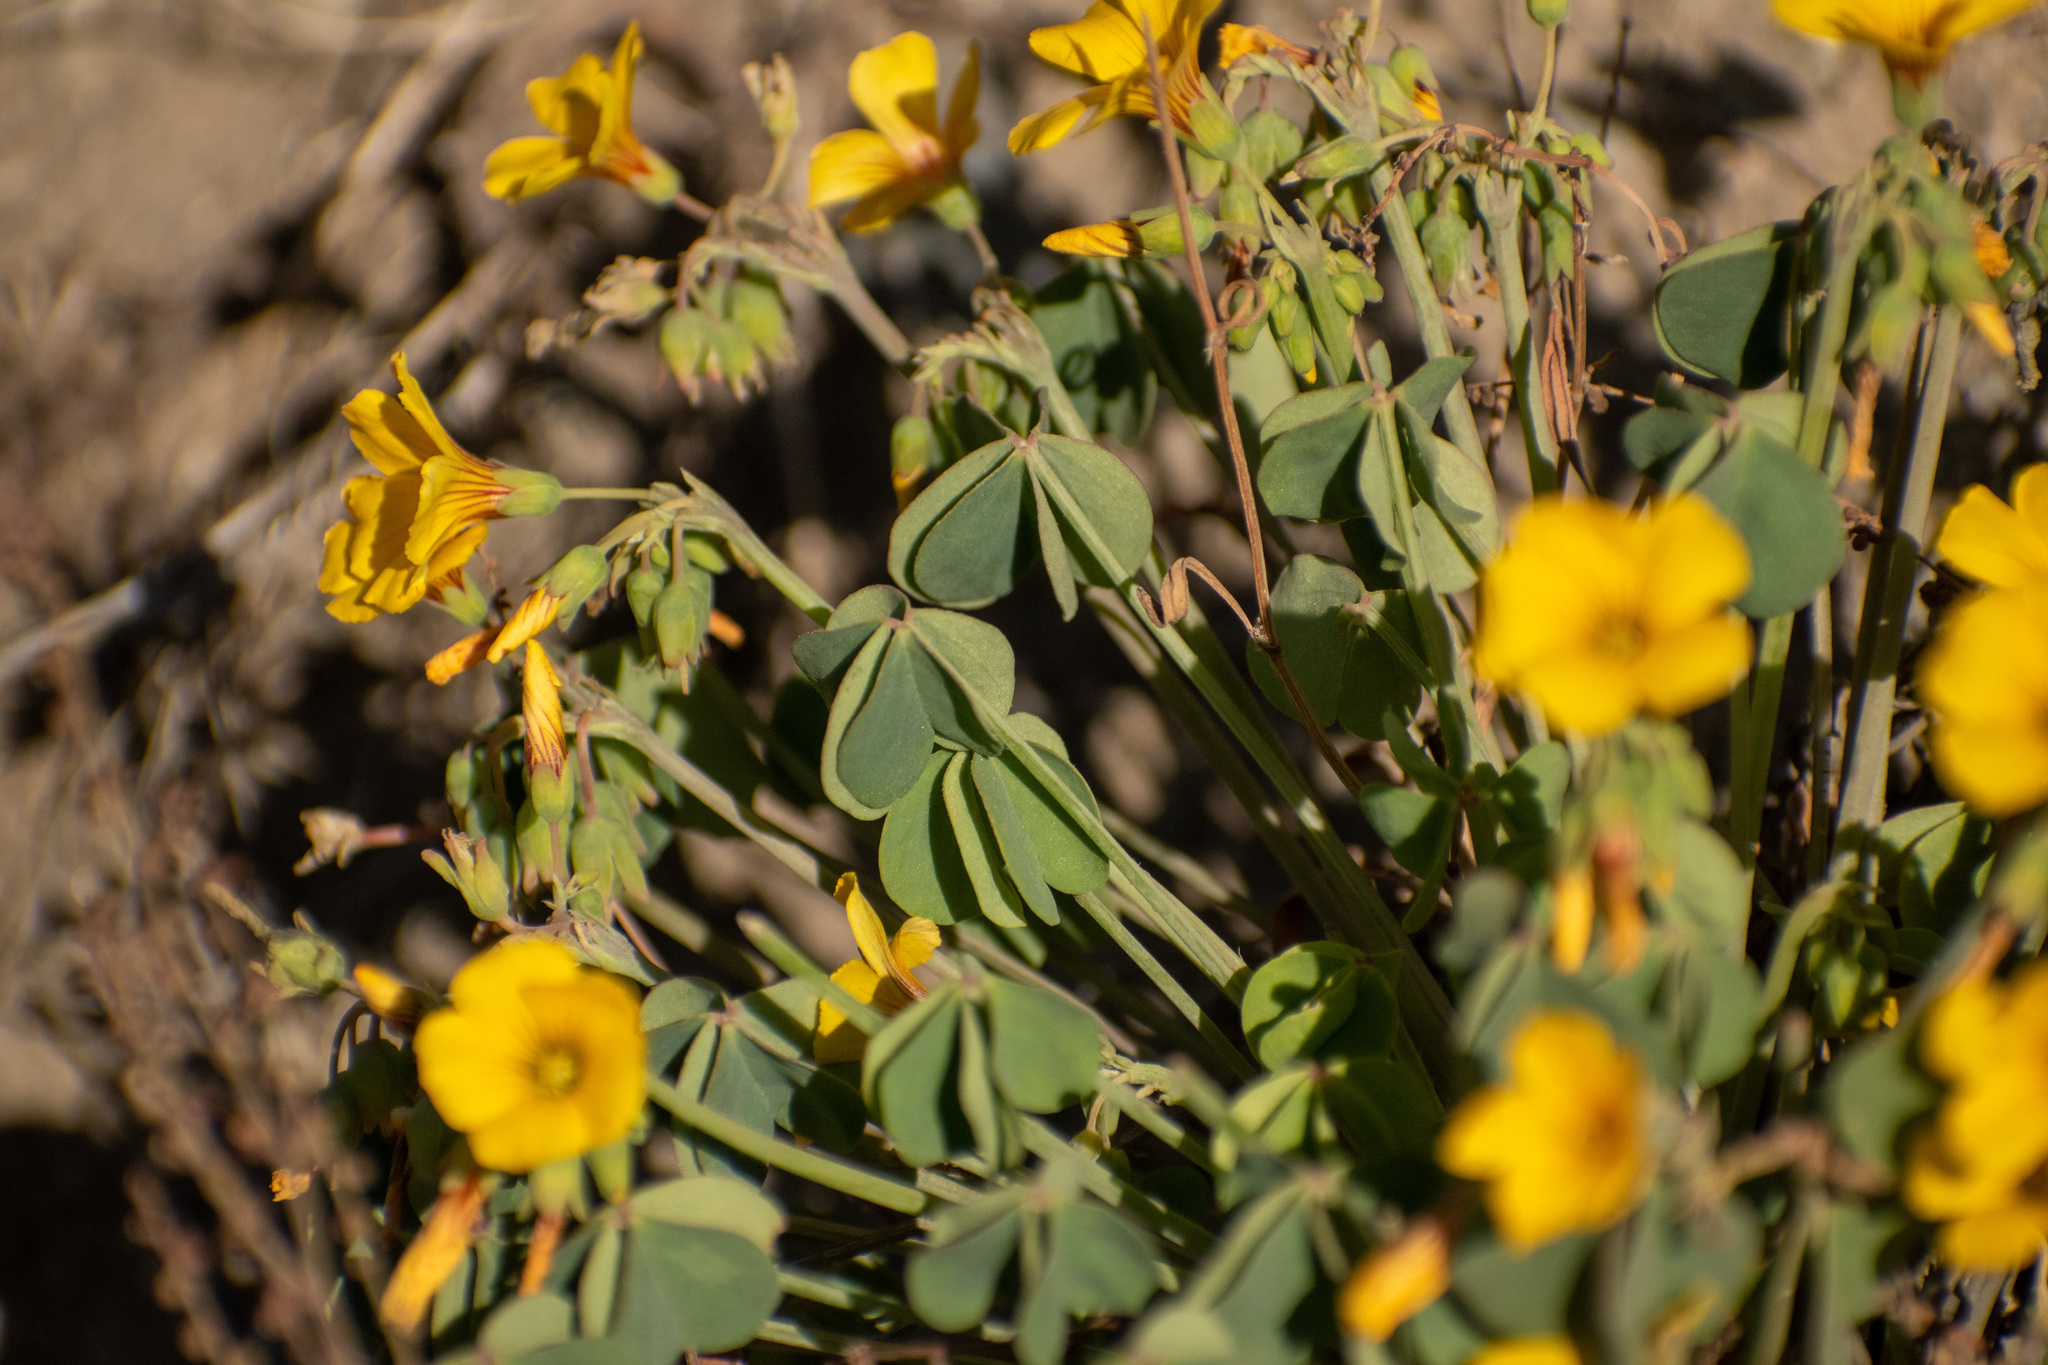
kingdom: Plantae
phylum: Tracheophyta
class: Magnoliopsida
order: Oxalidales
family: Oxalidaceae
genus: Oxalis
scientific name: Oxalis valdiviensis
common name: Chilean yellow-sorrel
